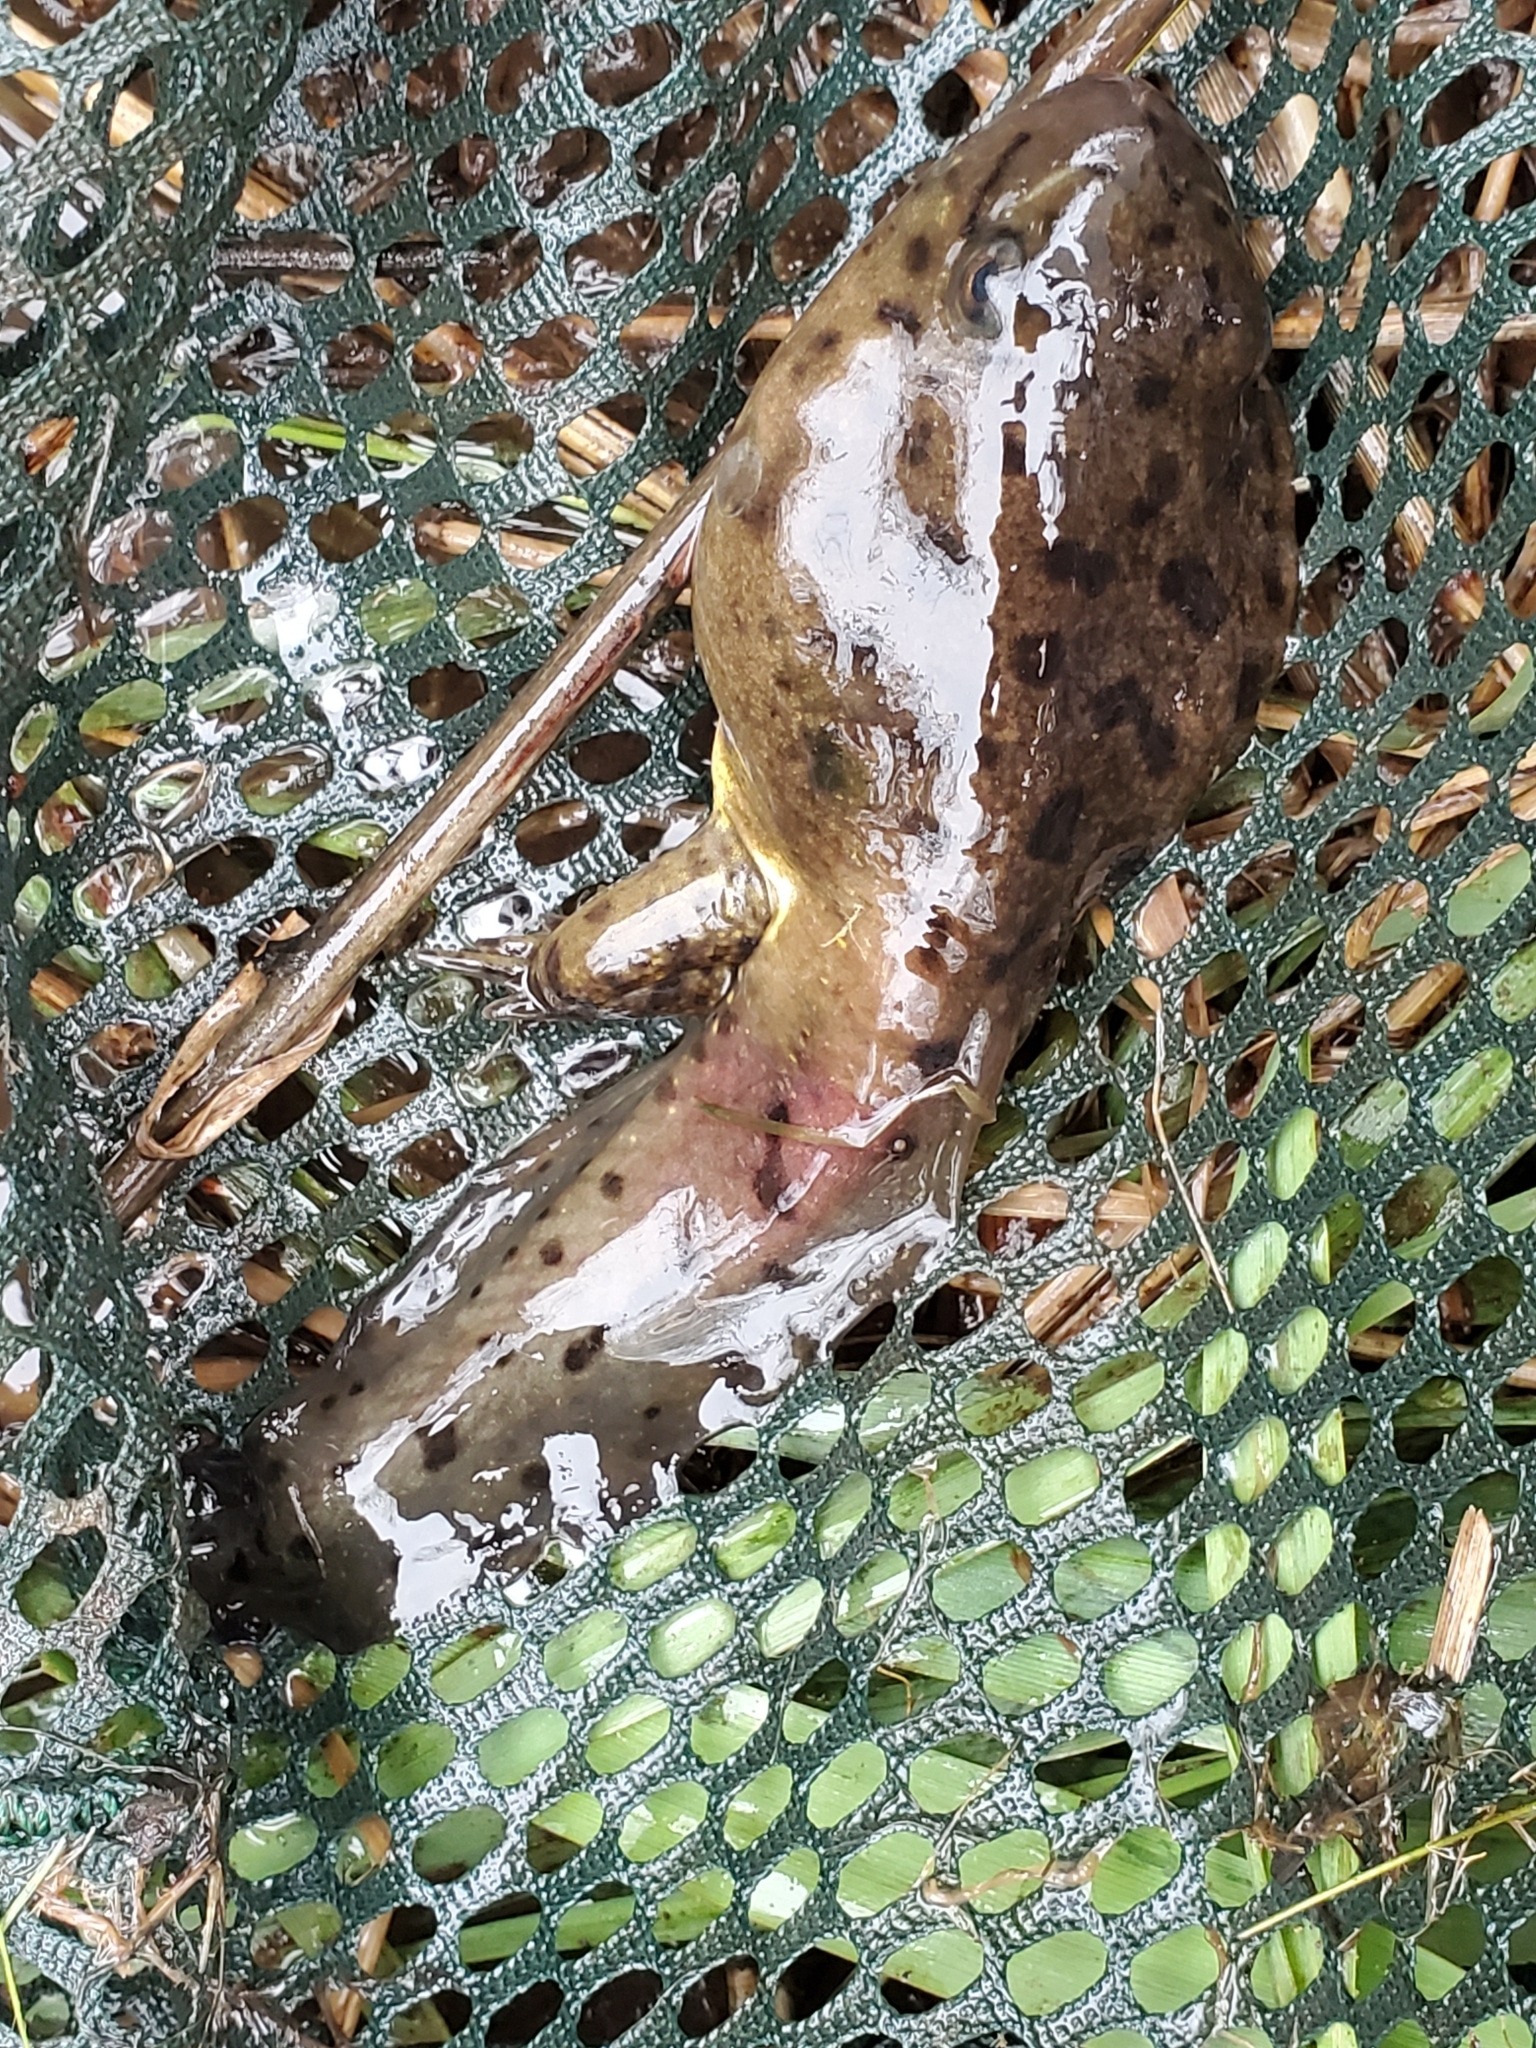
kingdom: Animalia
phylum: Chordata
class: Amphibia
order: Anura
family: Ranidae
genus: Lithobates
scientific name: Lithobates catesbeianus
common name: American bullfrog
